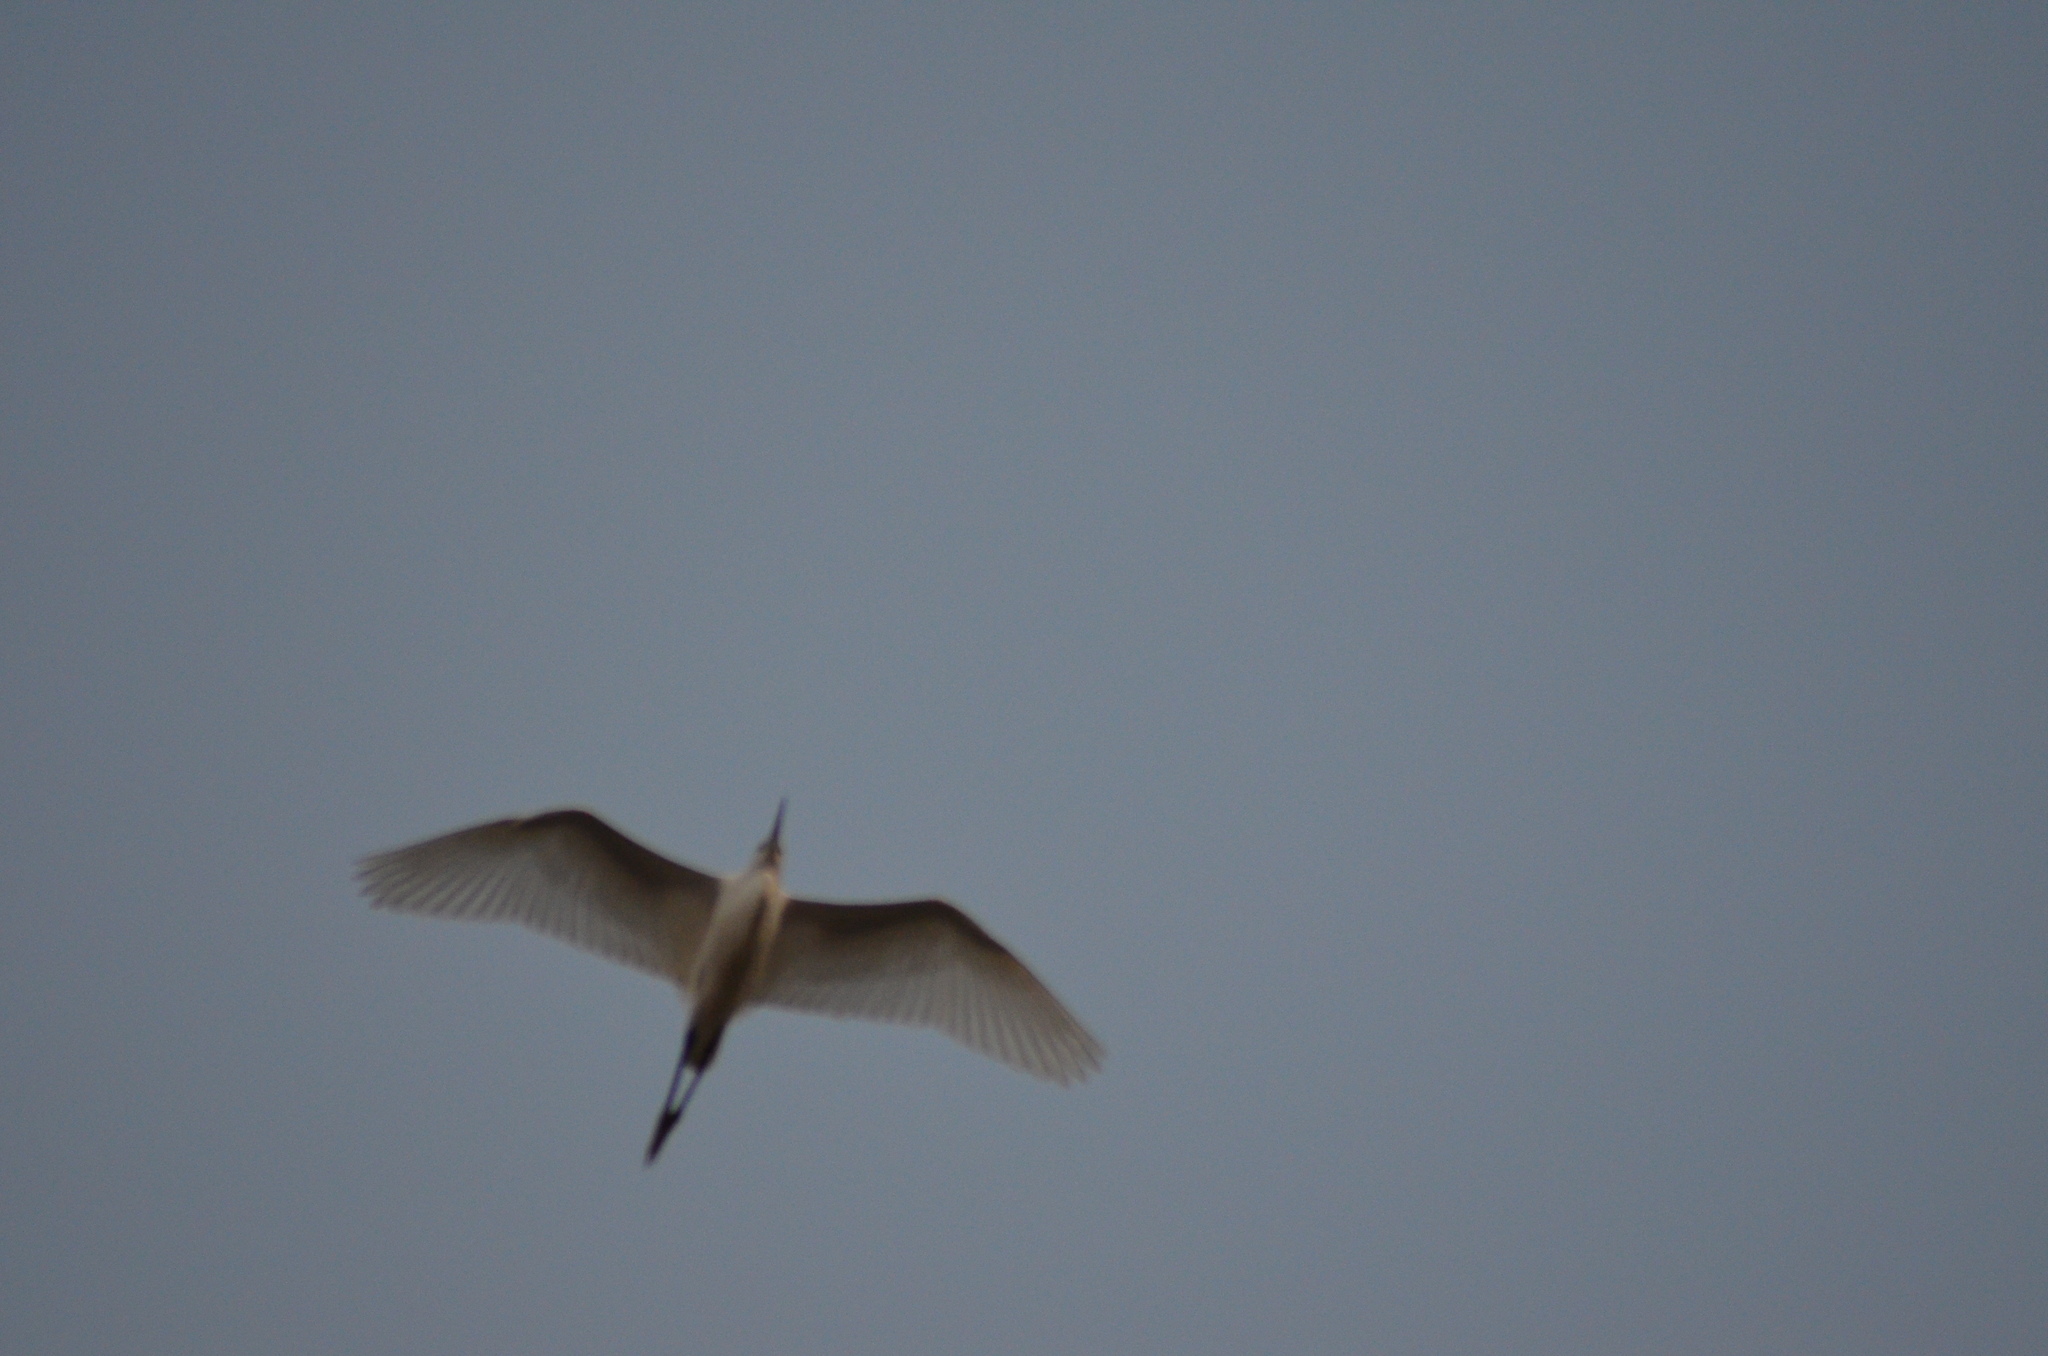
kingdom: Animalia
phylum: Chordata
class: Aves
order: Pelecaniformes
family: Ardeidae
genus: Bubulcus
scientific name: Bubulcus ibis
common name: Cattle egret
